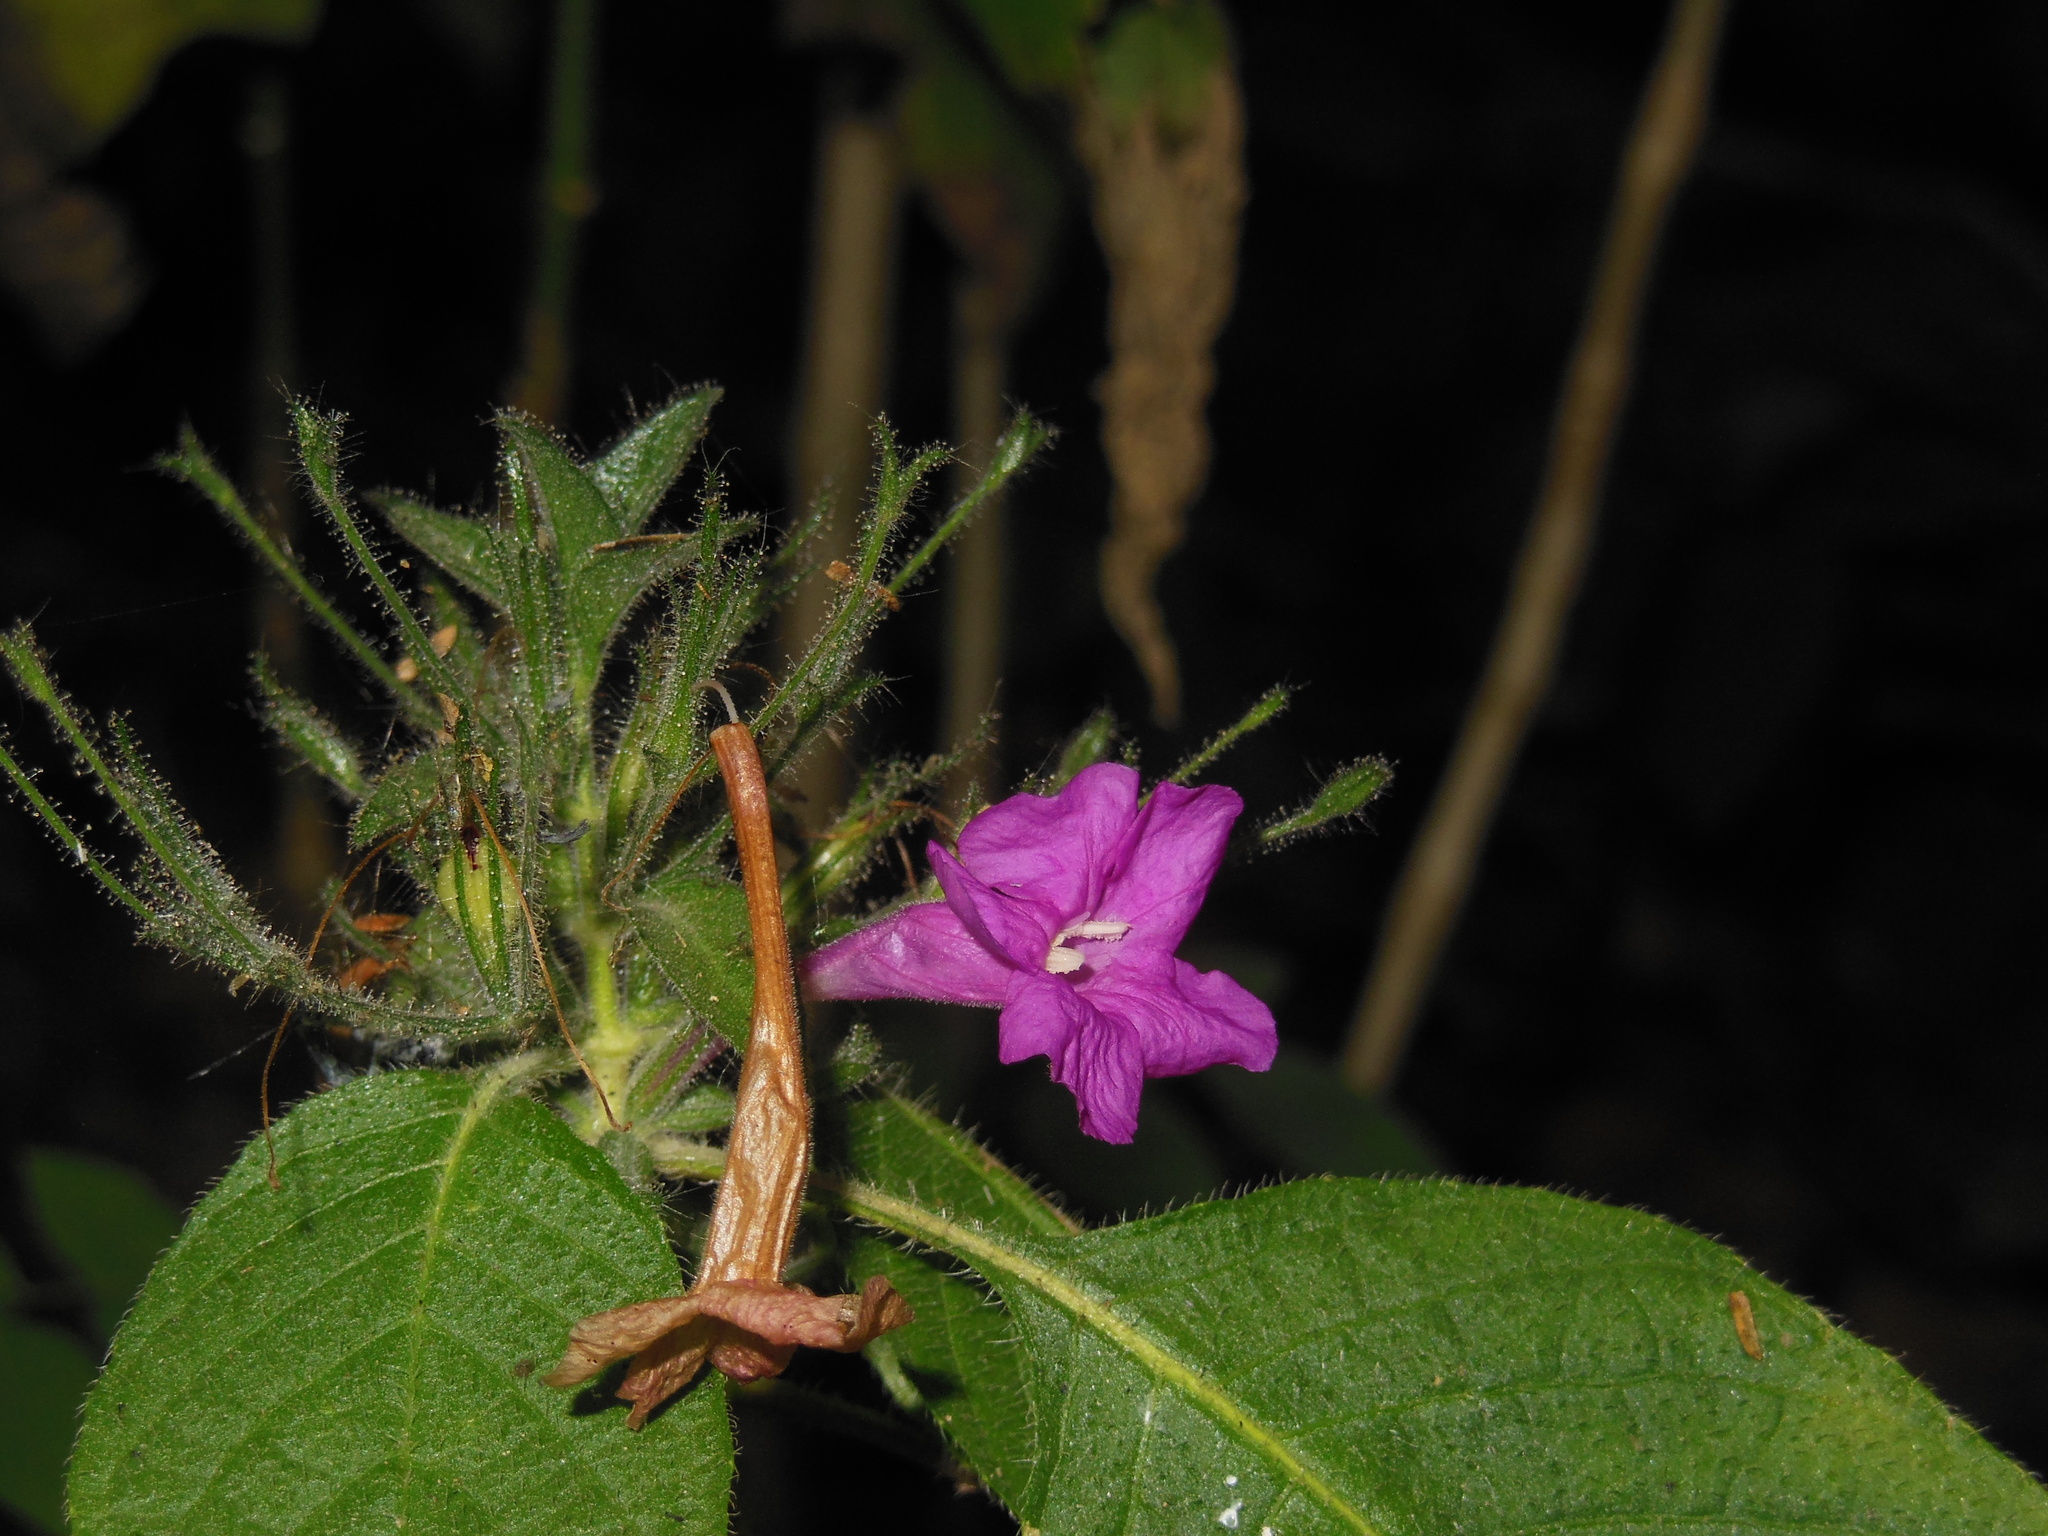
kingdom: Plantae
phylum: Tracheophyta
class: Magnoliopsida
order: Lamiales
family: Acanthaceae
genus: Ruellia
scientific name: Ruellia inundata
